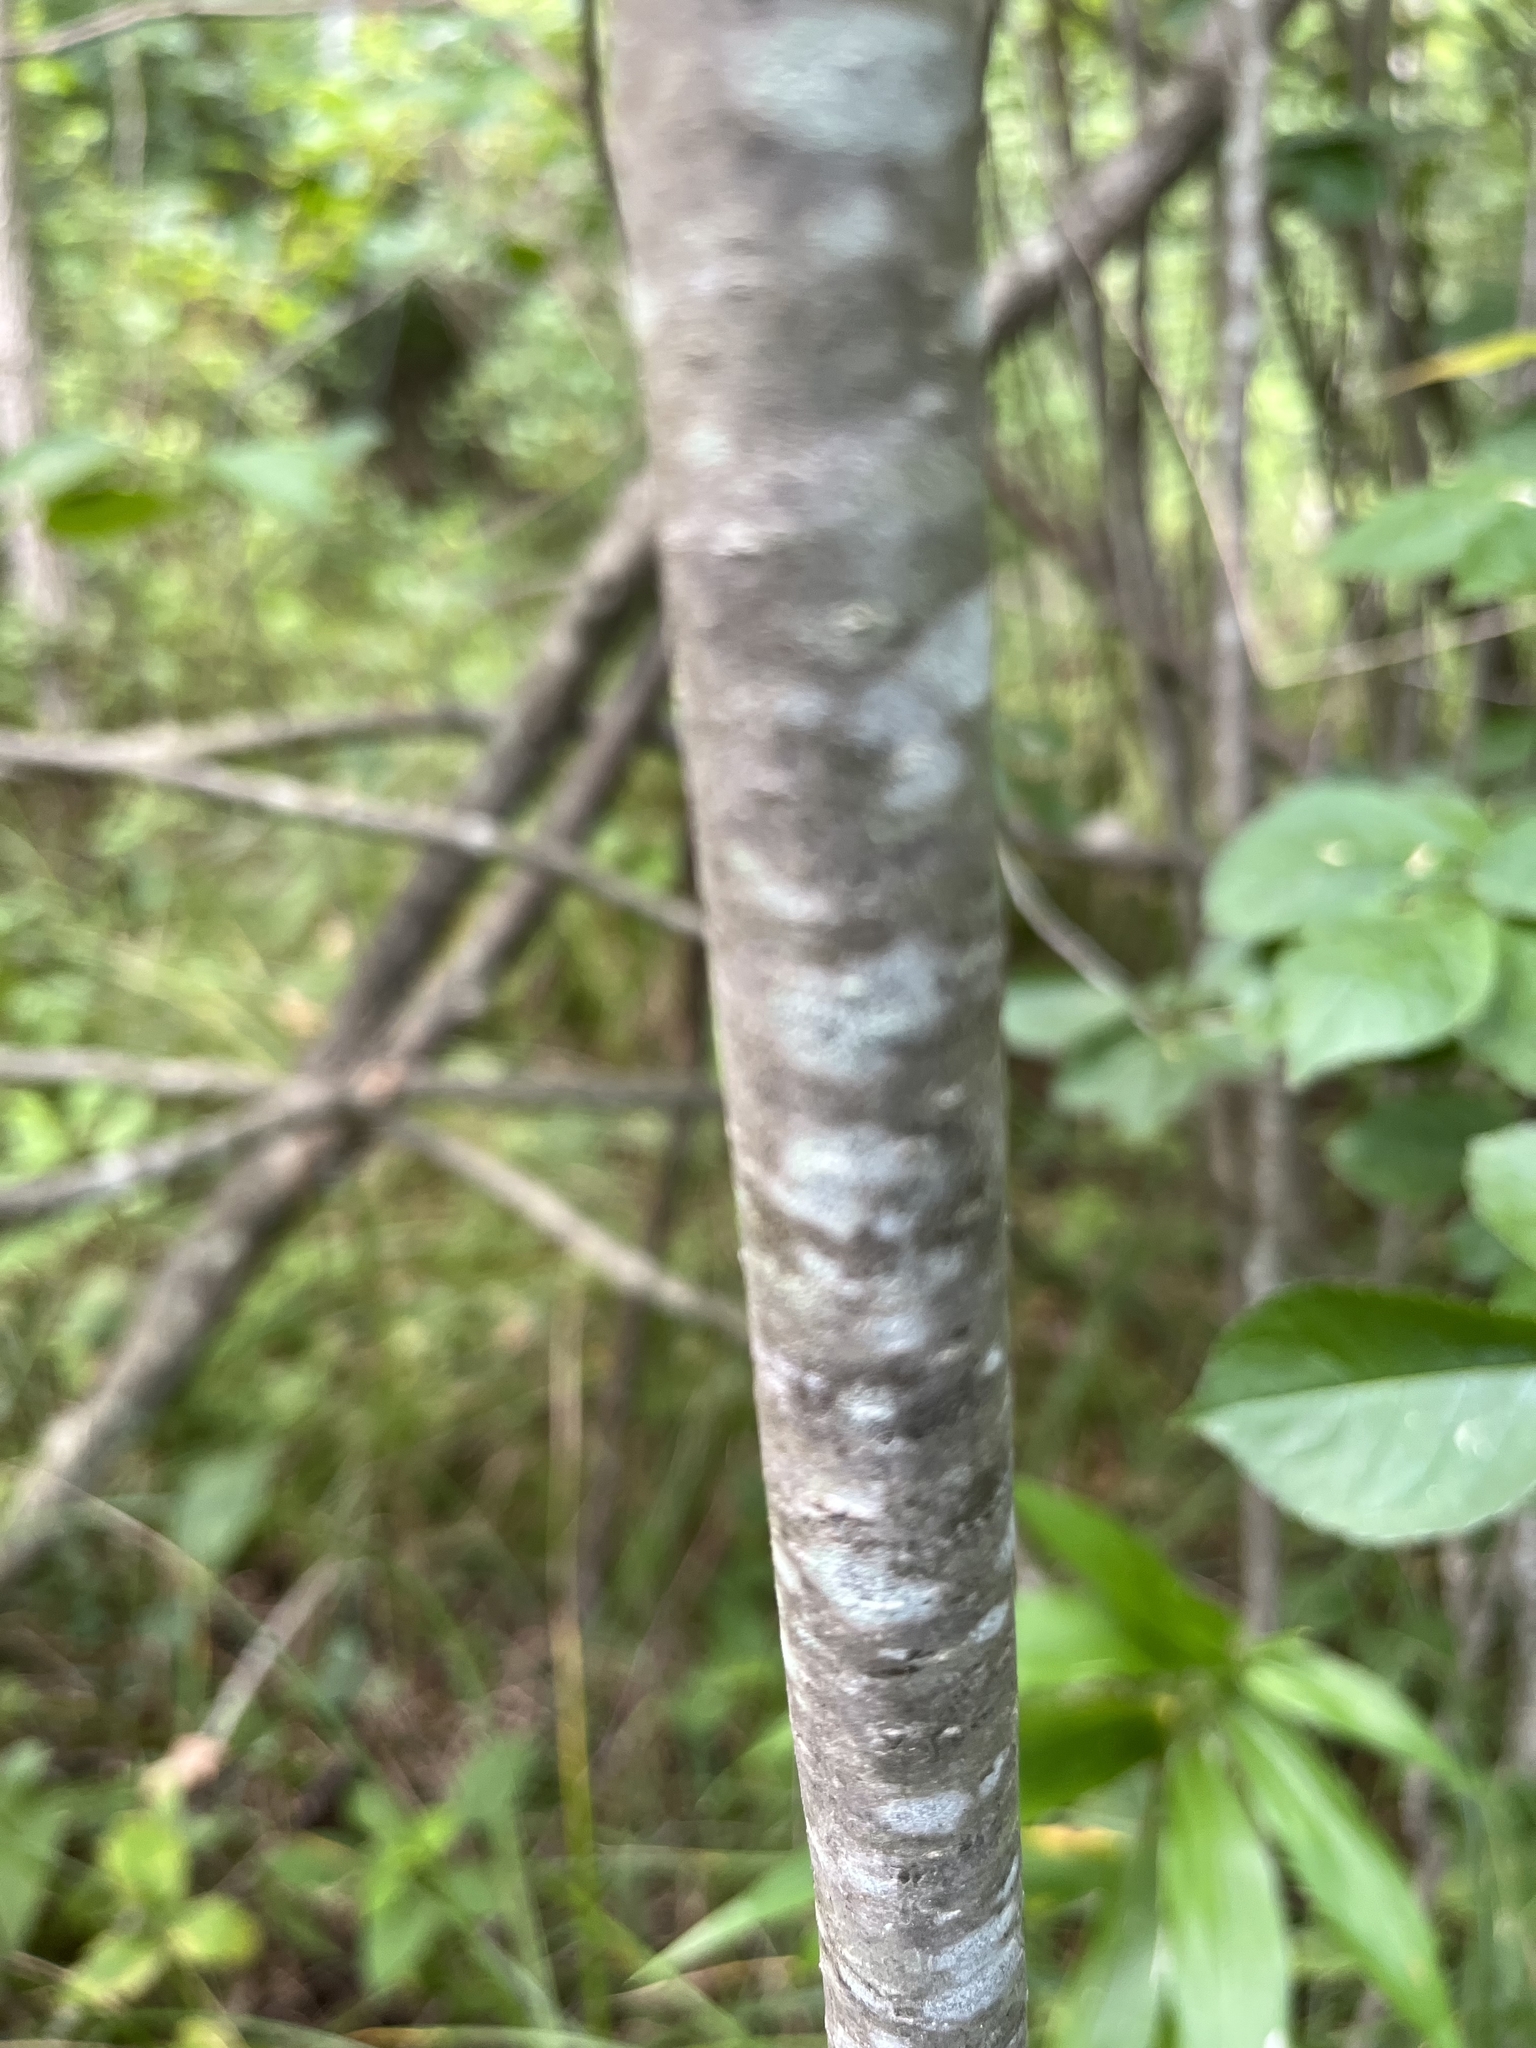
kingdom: Plantae
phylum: Tracheophyta
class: Magnoliopsida
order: Aquifoliales
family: Aquifoliaceae
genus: Ilex
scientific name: Ilex verticillata
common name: Virginia winterberry
